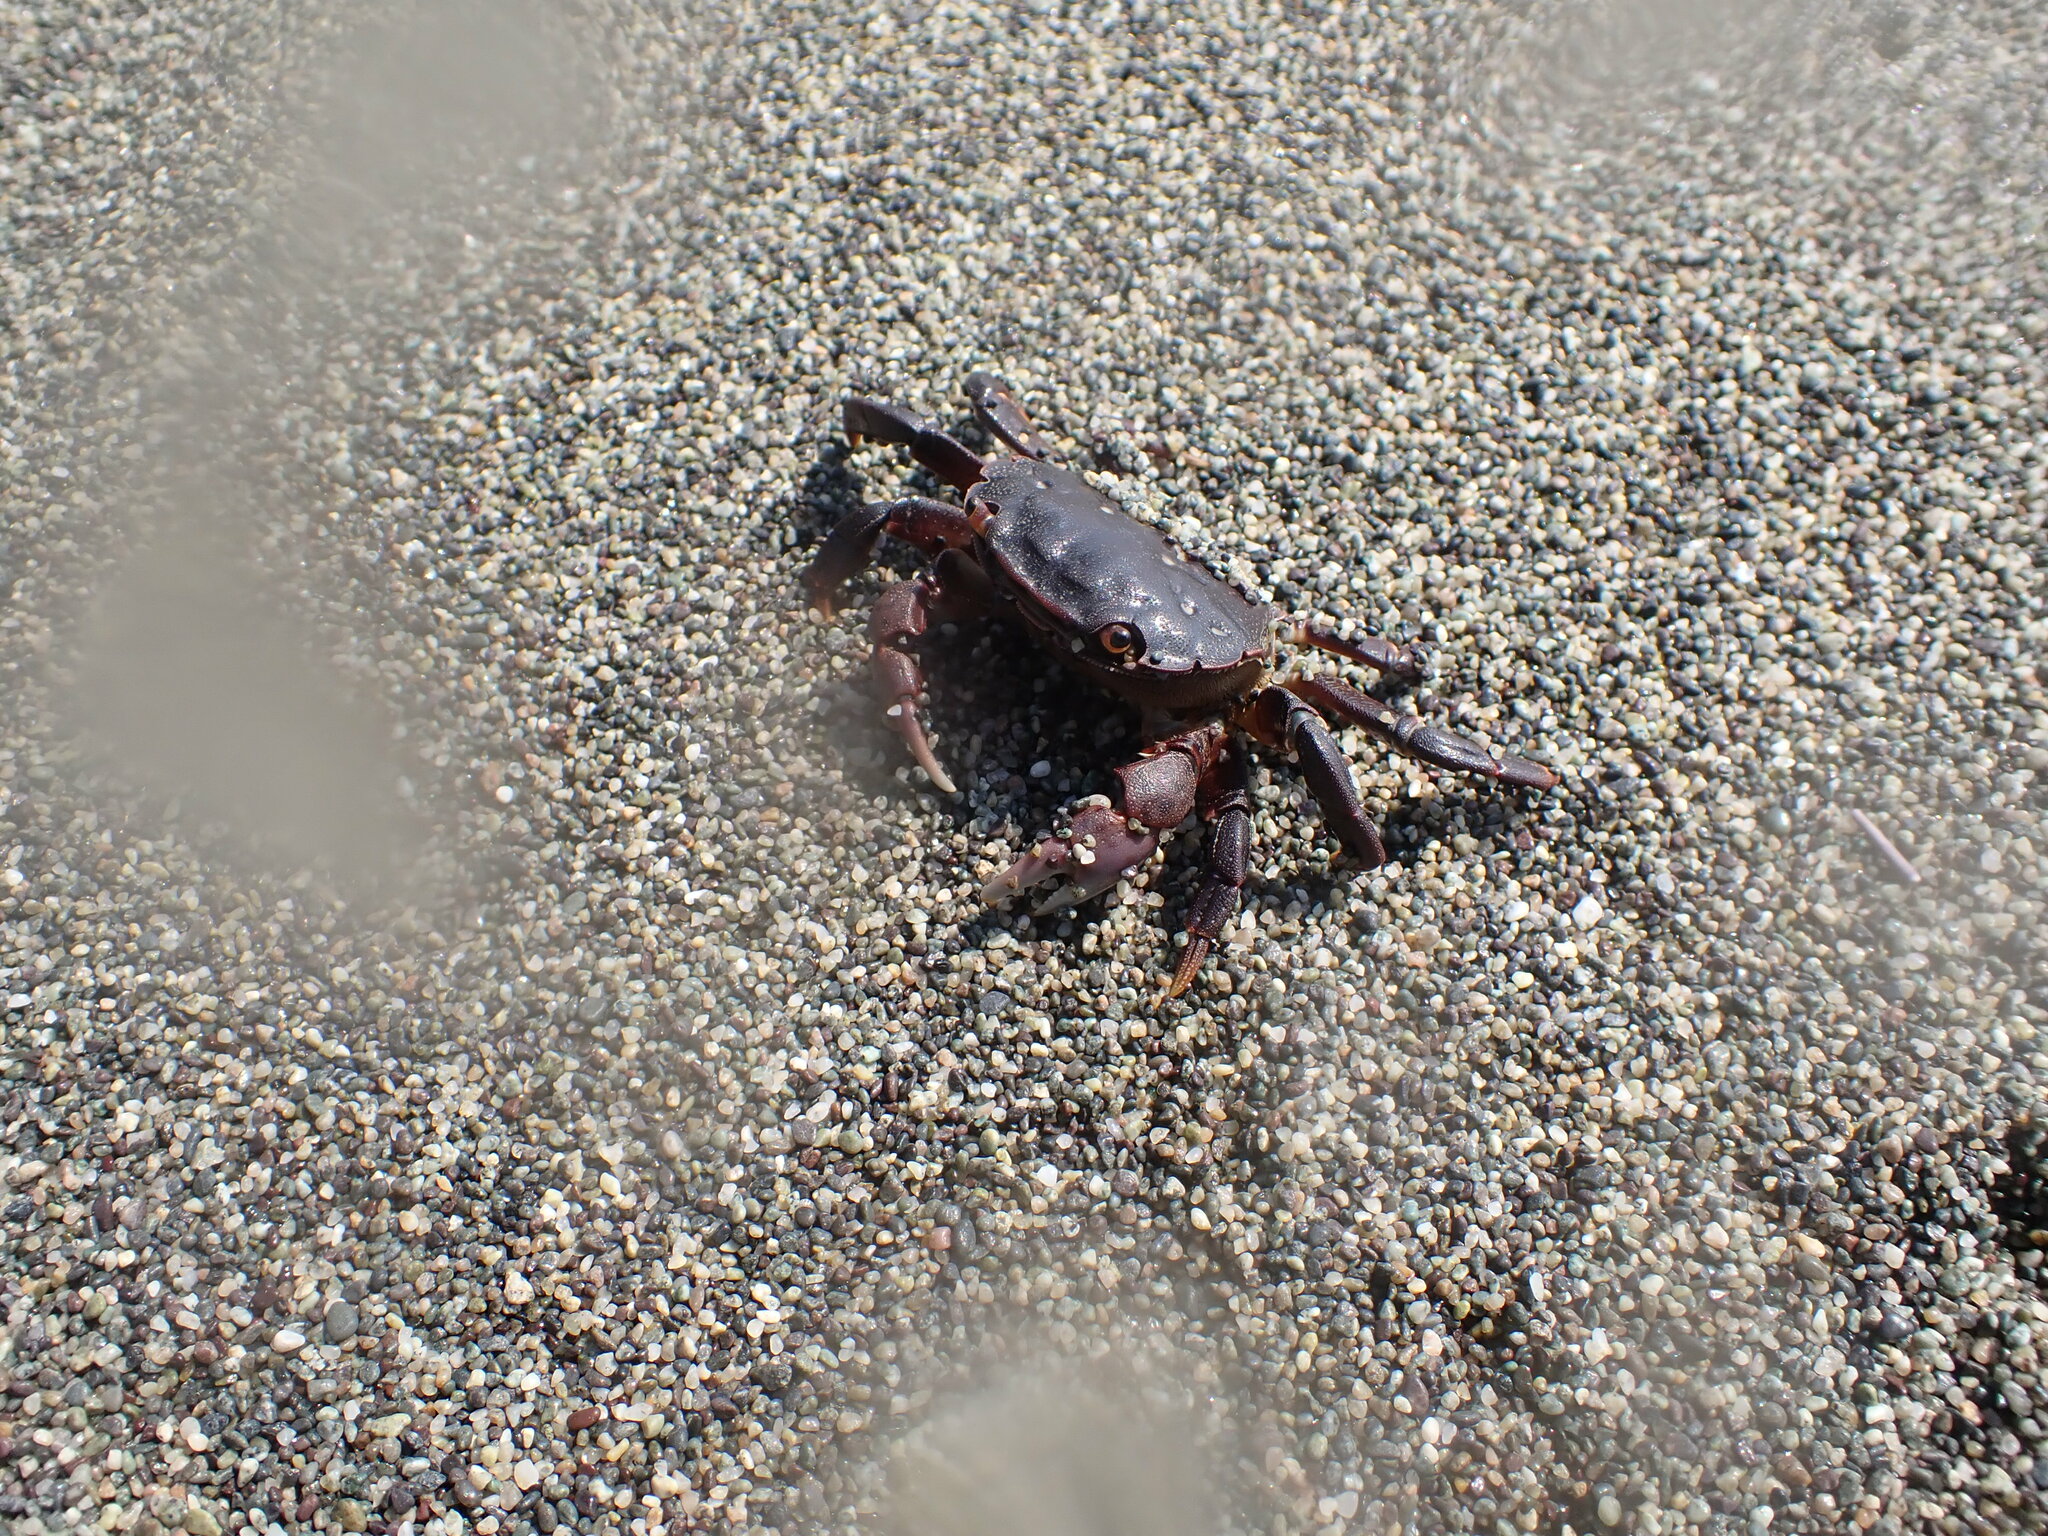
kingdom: Animalia
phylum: Arthropoda
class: Malacostraca
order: Decapoda
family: Varunidae
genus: Hemigrapsus
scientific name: Hemigrapsus nudus
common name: Purple shore crab
